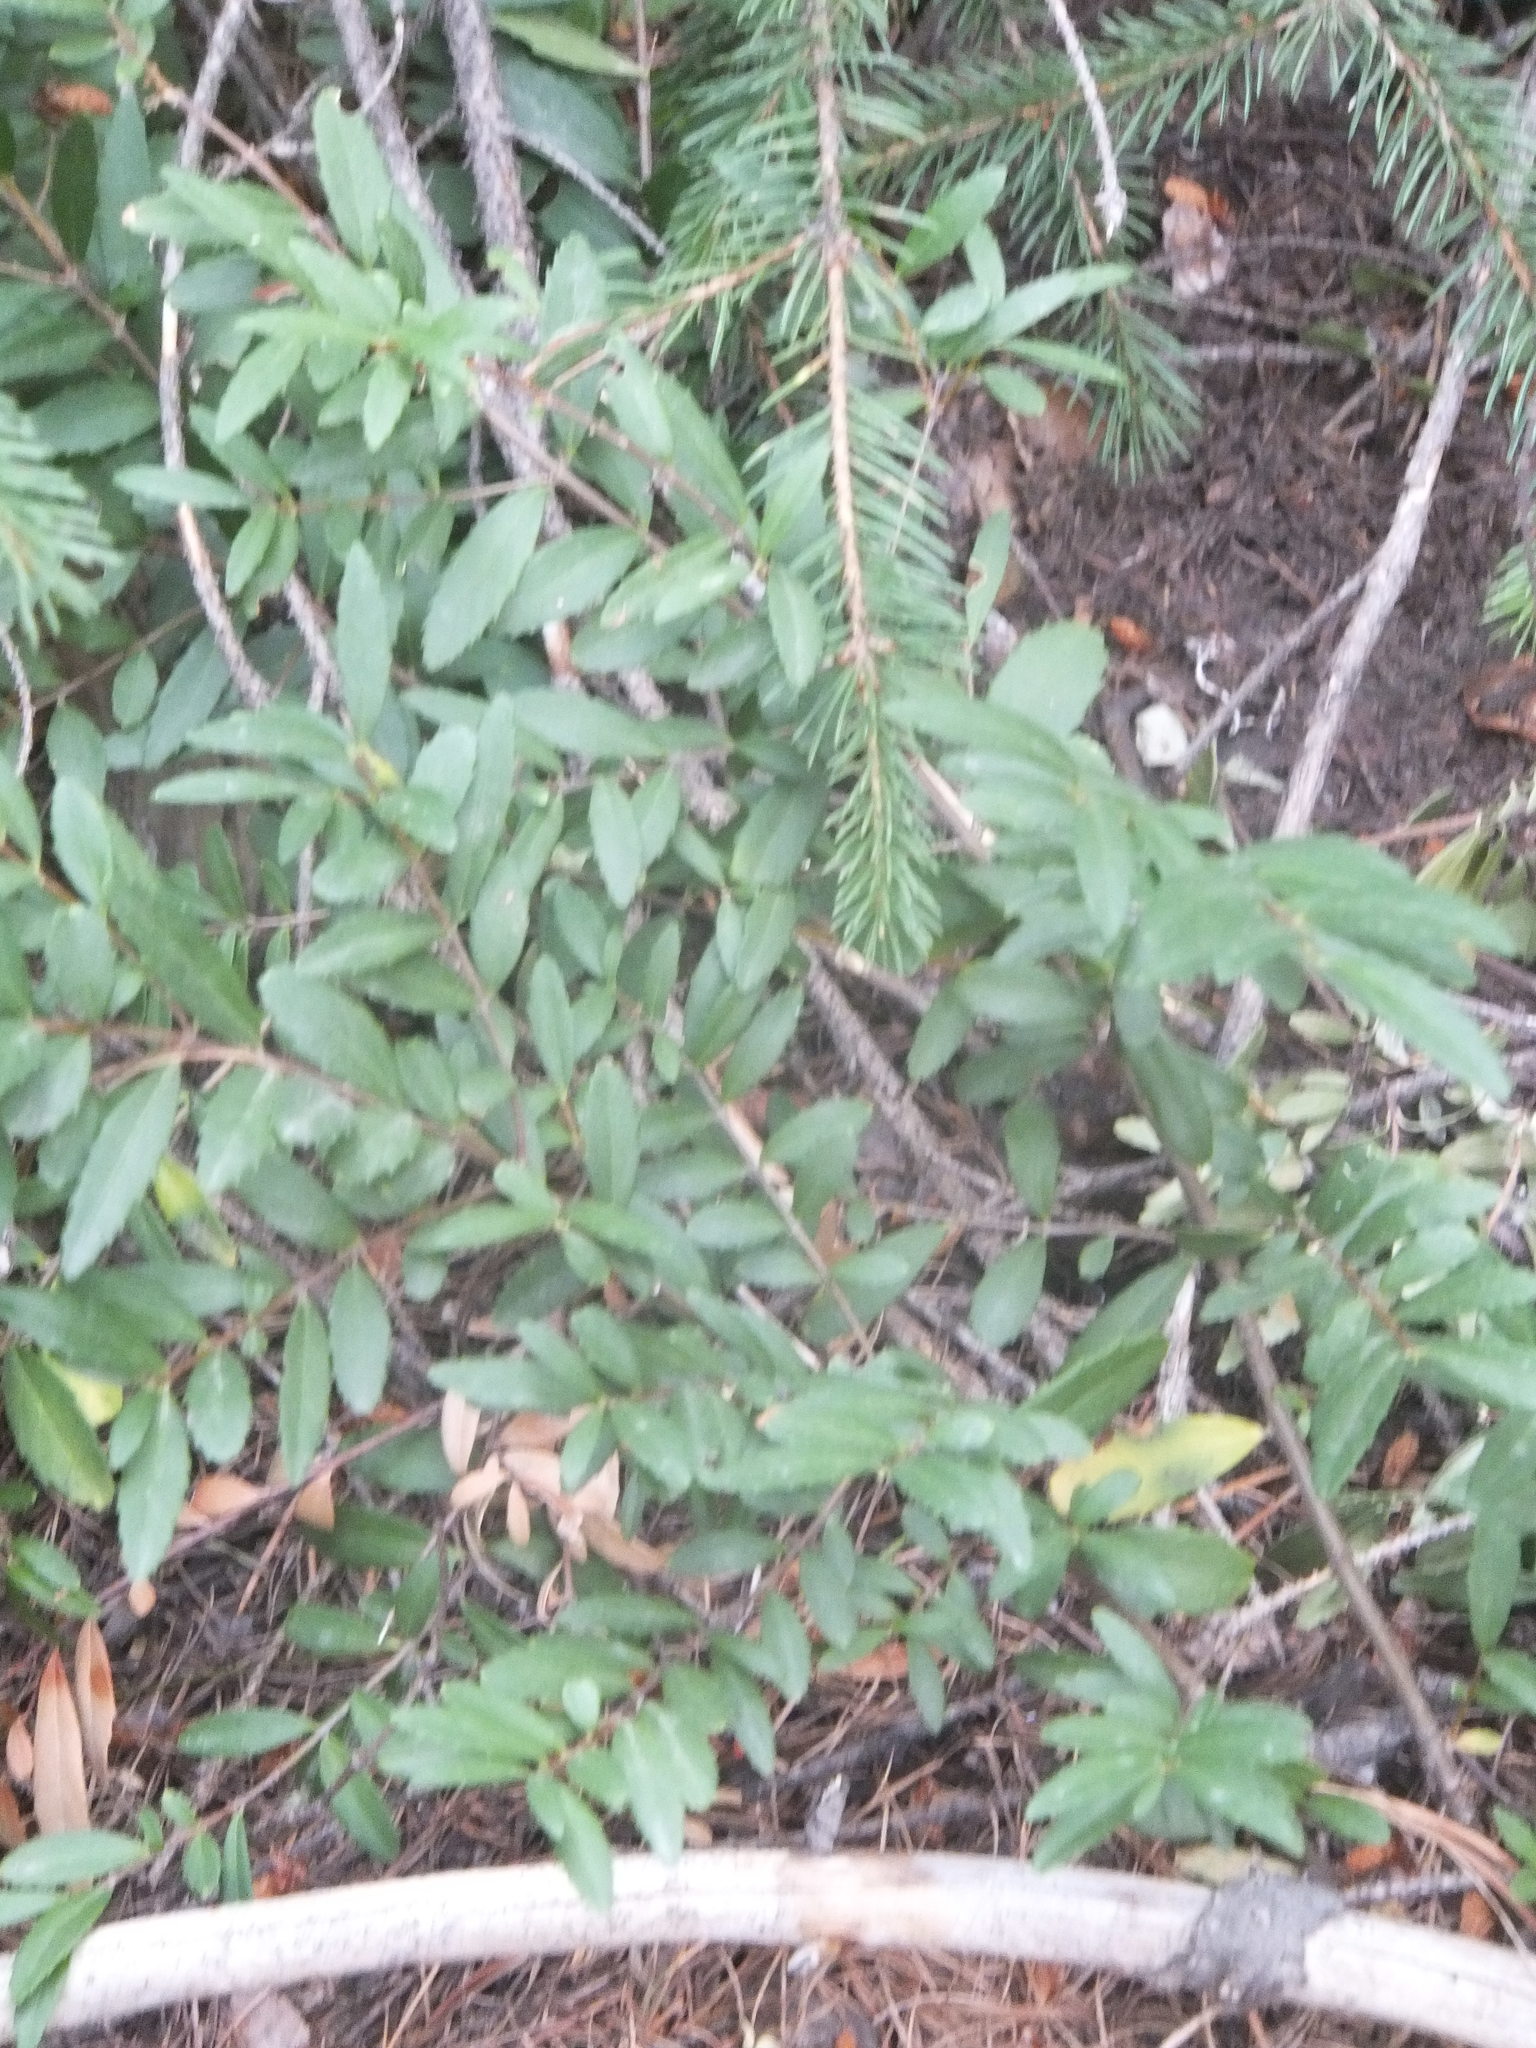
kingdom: Plantae
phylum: Tracheophyta
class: Magnoliopsida
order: Celastrales
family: Celastraceae
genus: Paxistima
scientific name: Paxistima myrsinites
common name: Mountain-lover
